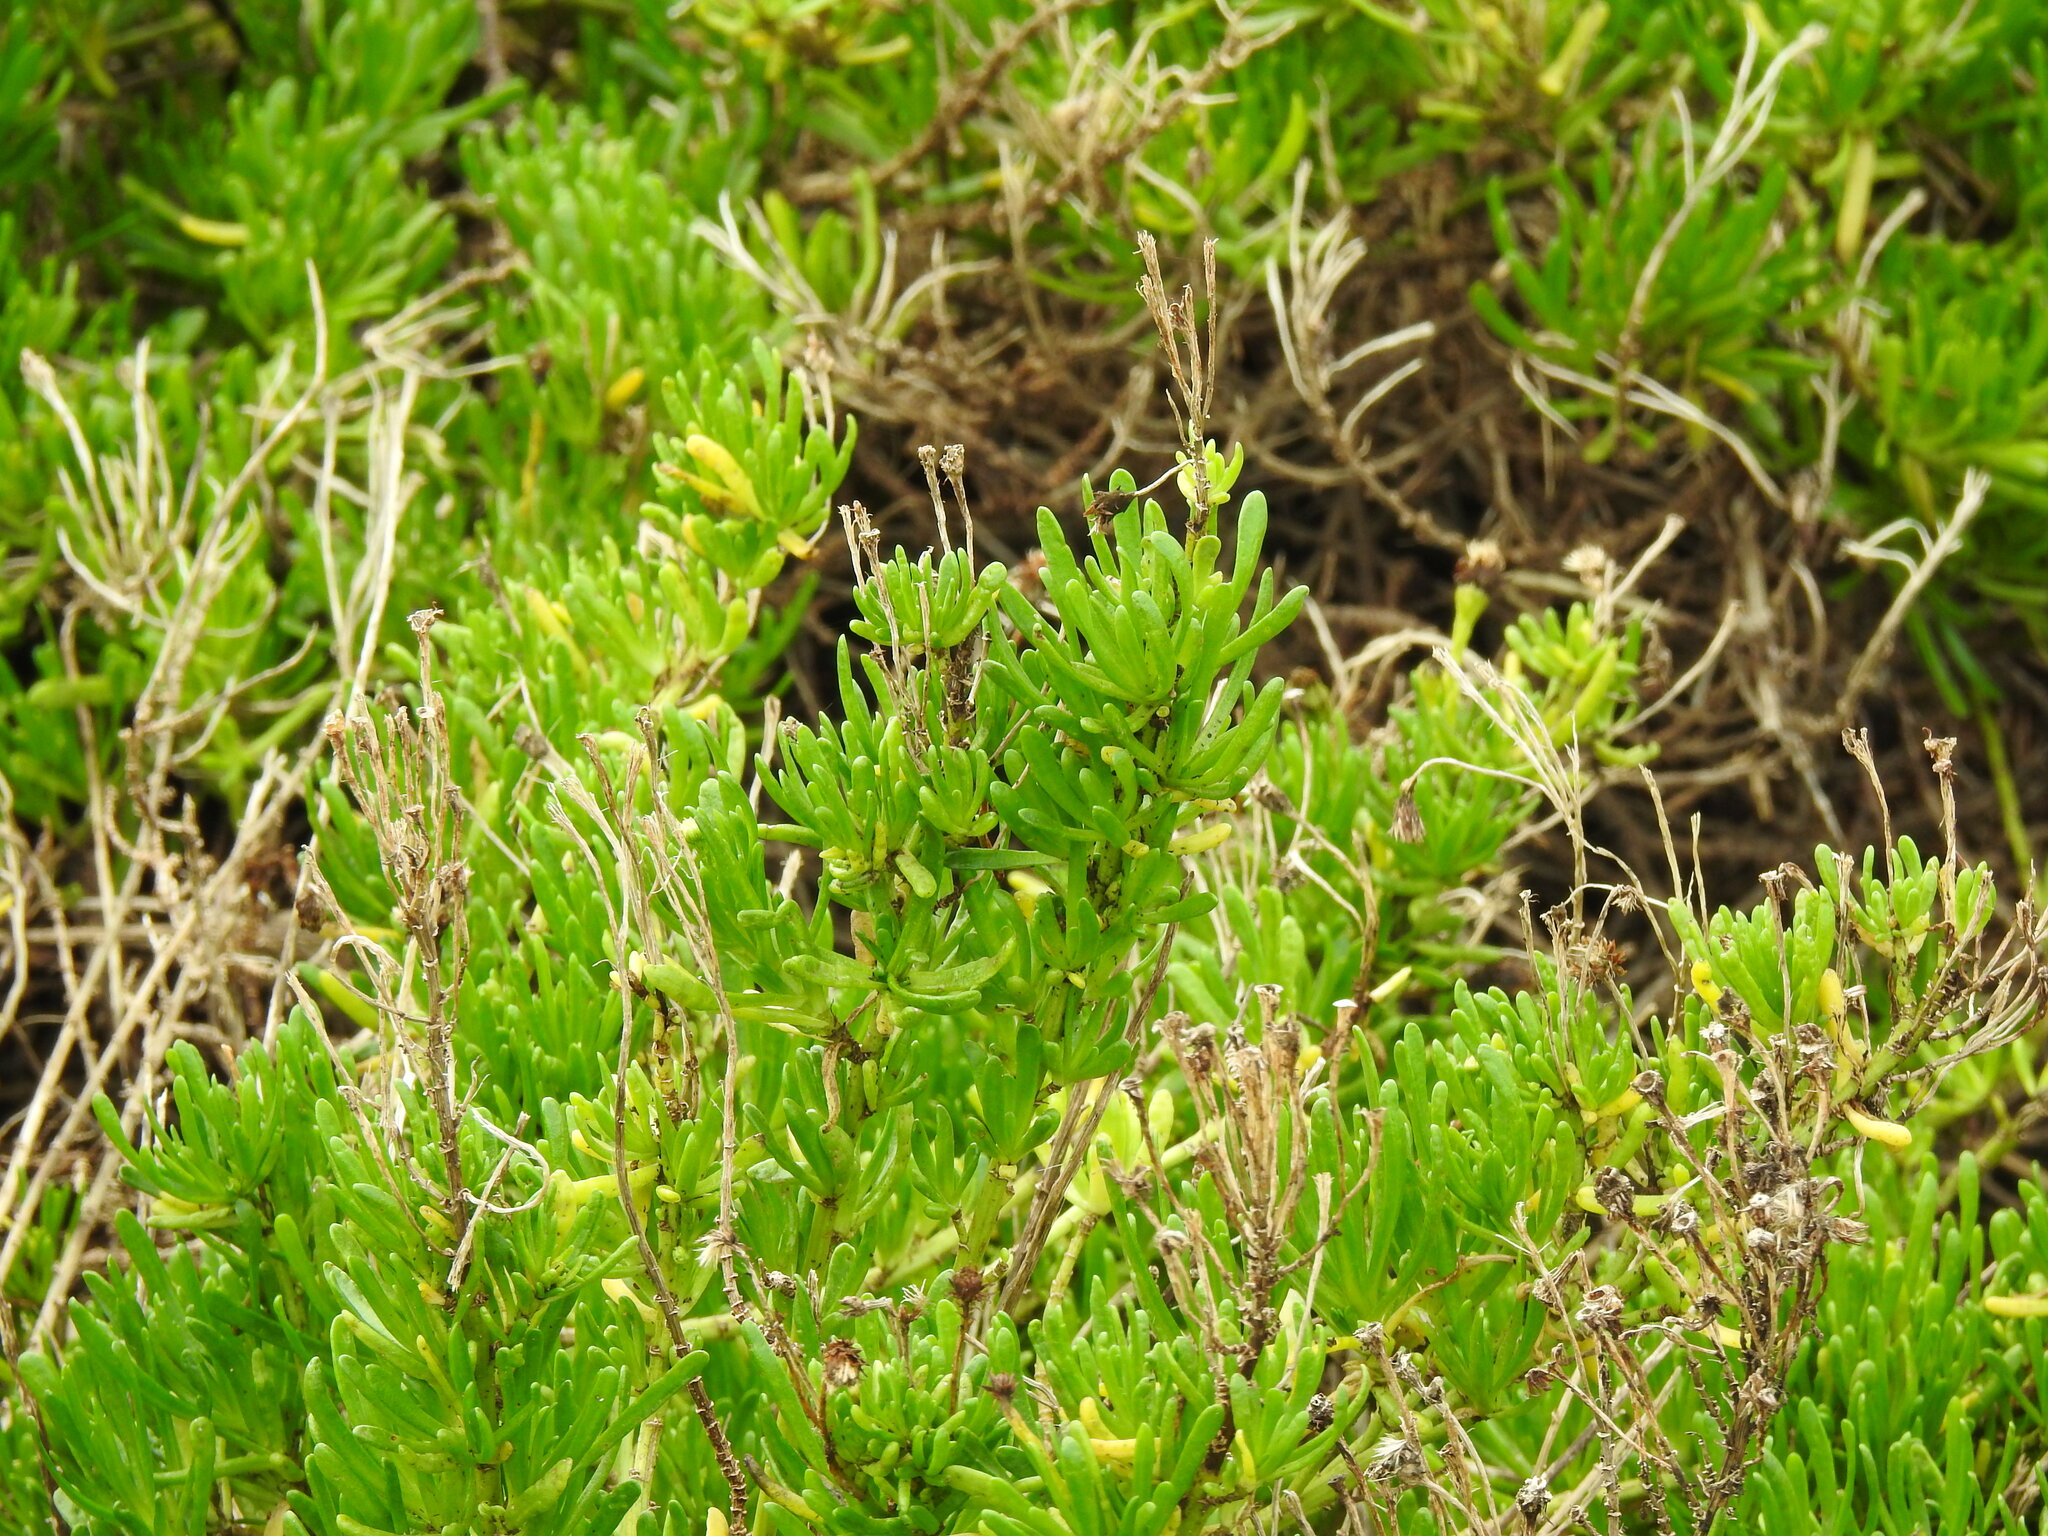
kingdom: Plantae
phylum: Tracheophyta
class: Magnoliopsida
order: Asterales
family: Asteraceae
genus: Limbarda
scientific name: Limbarda crithmoides
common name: Golden samphire
